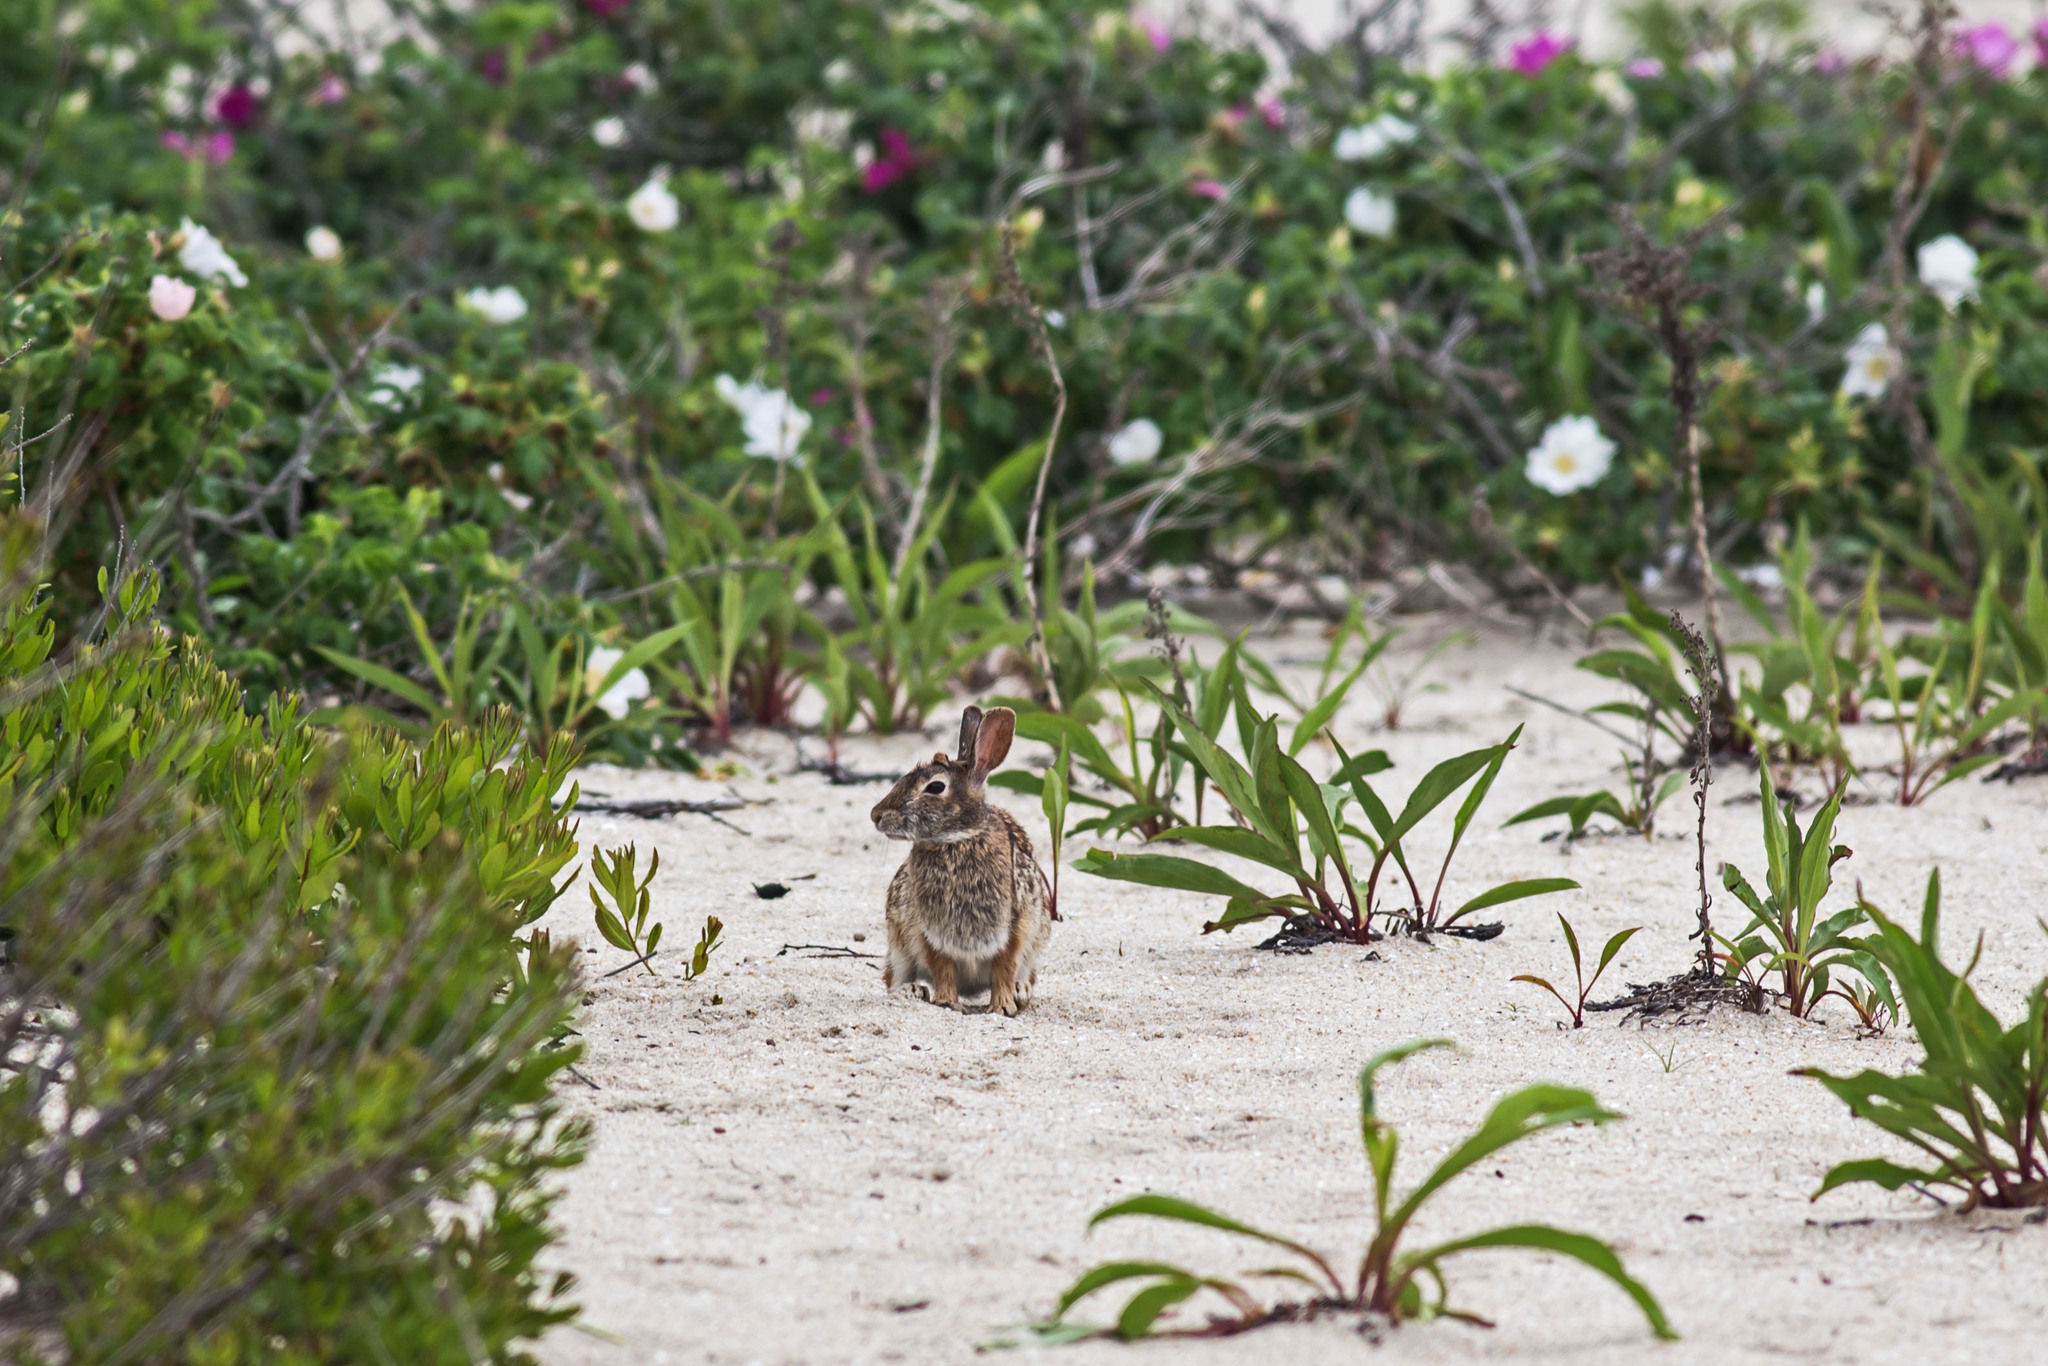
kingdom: Animalia
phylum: Chordata
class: Mammalia
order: Lagomorpha
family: Leporidae
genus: Sylvilagus
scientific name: Sylvilagus floridanus
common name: Eastern cottontail
